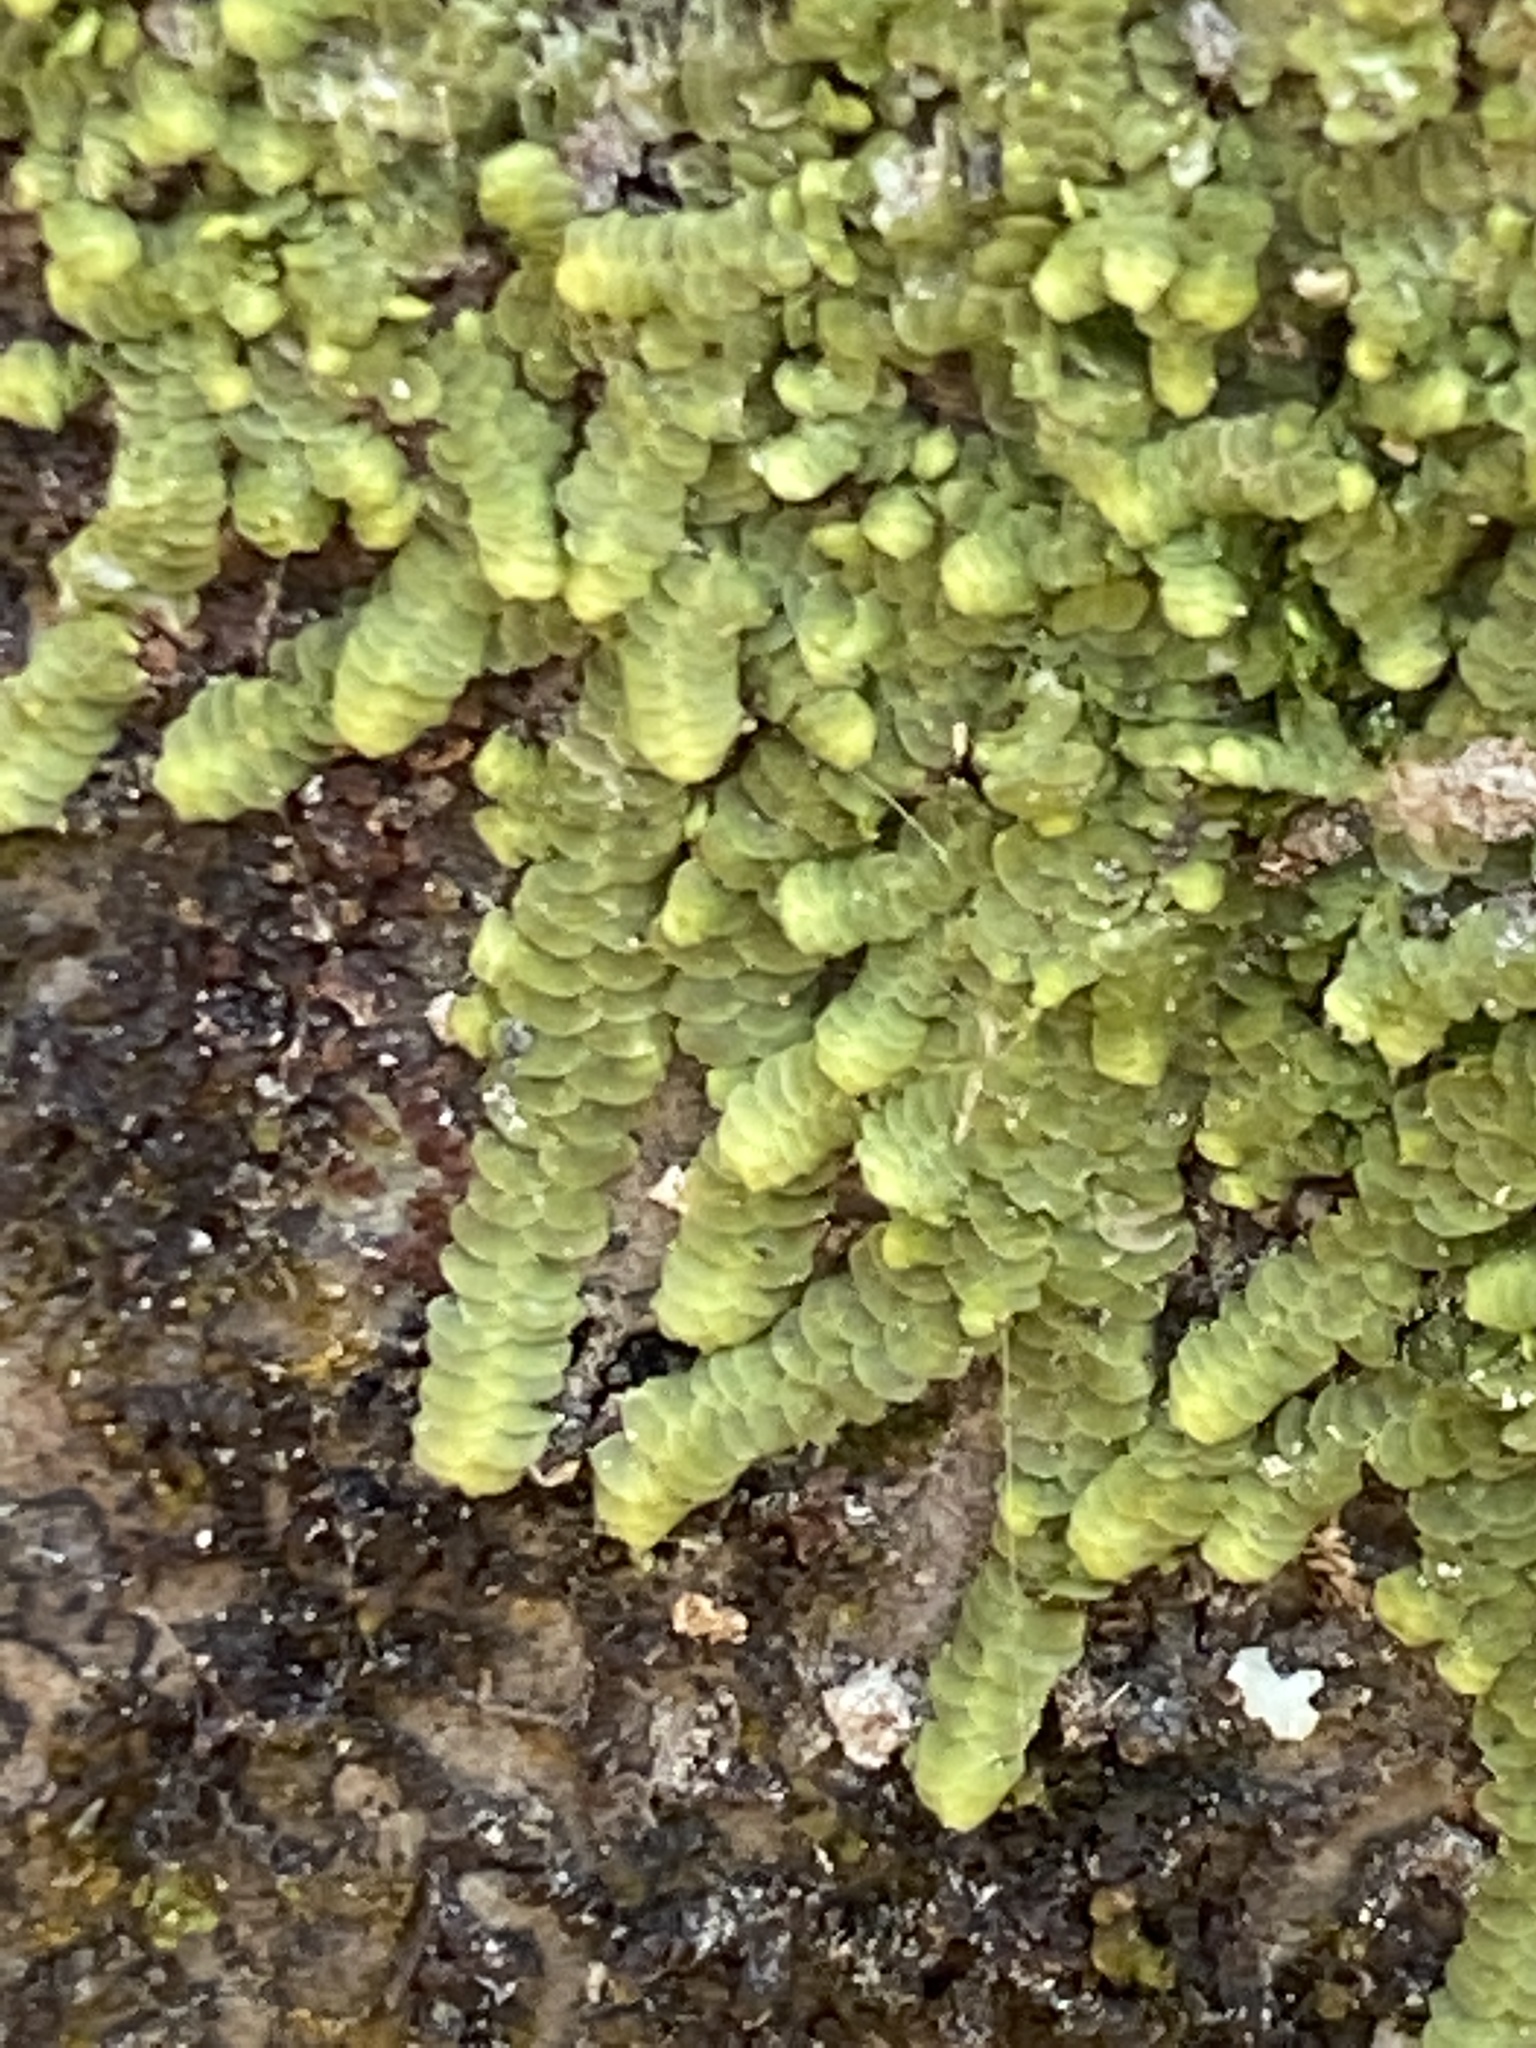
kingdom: Plantae
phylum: Marchantiophyta
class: Jungermanniopsida
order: Porellales
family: Radulaceae
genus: Radula
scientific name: Radula complanata
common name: Flat-leaved scalewort
